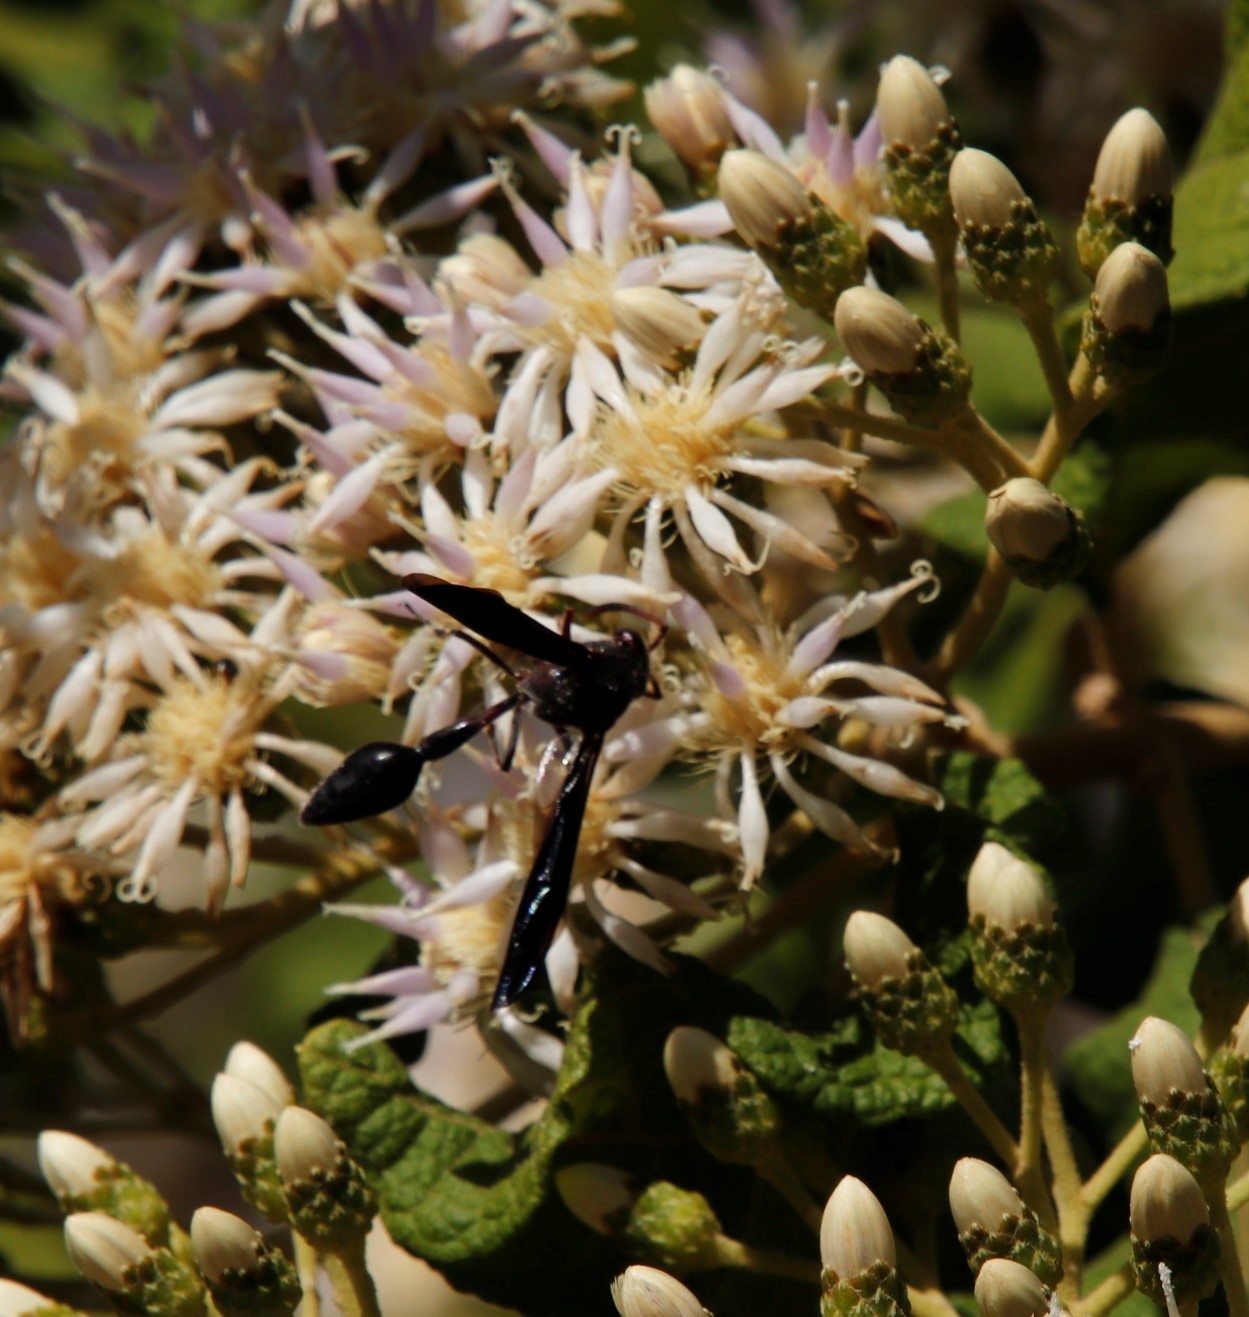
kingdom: Animalia
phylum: Arthropoda
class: Insecta
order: Hymenoptera
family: Eumenidae
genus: Delta
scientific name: Delta
